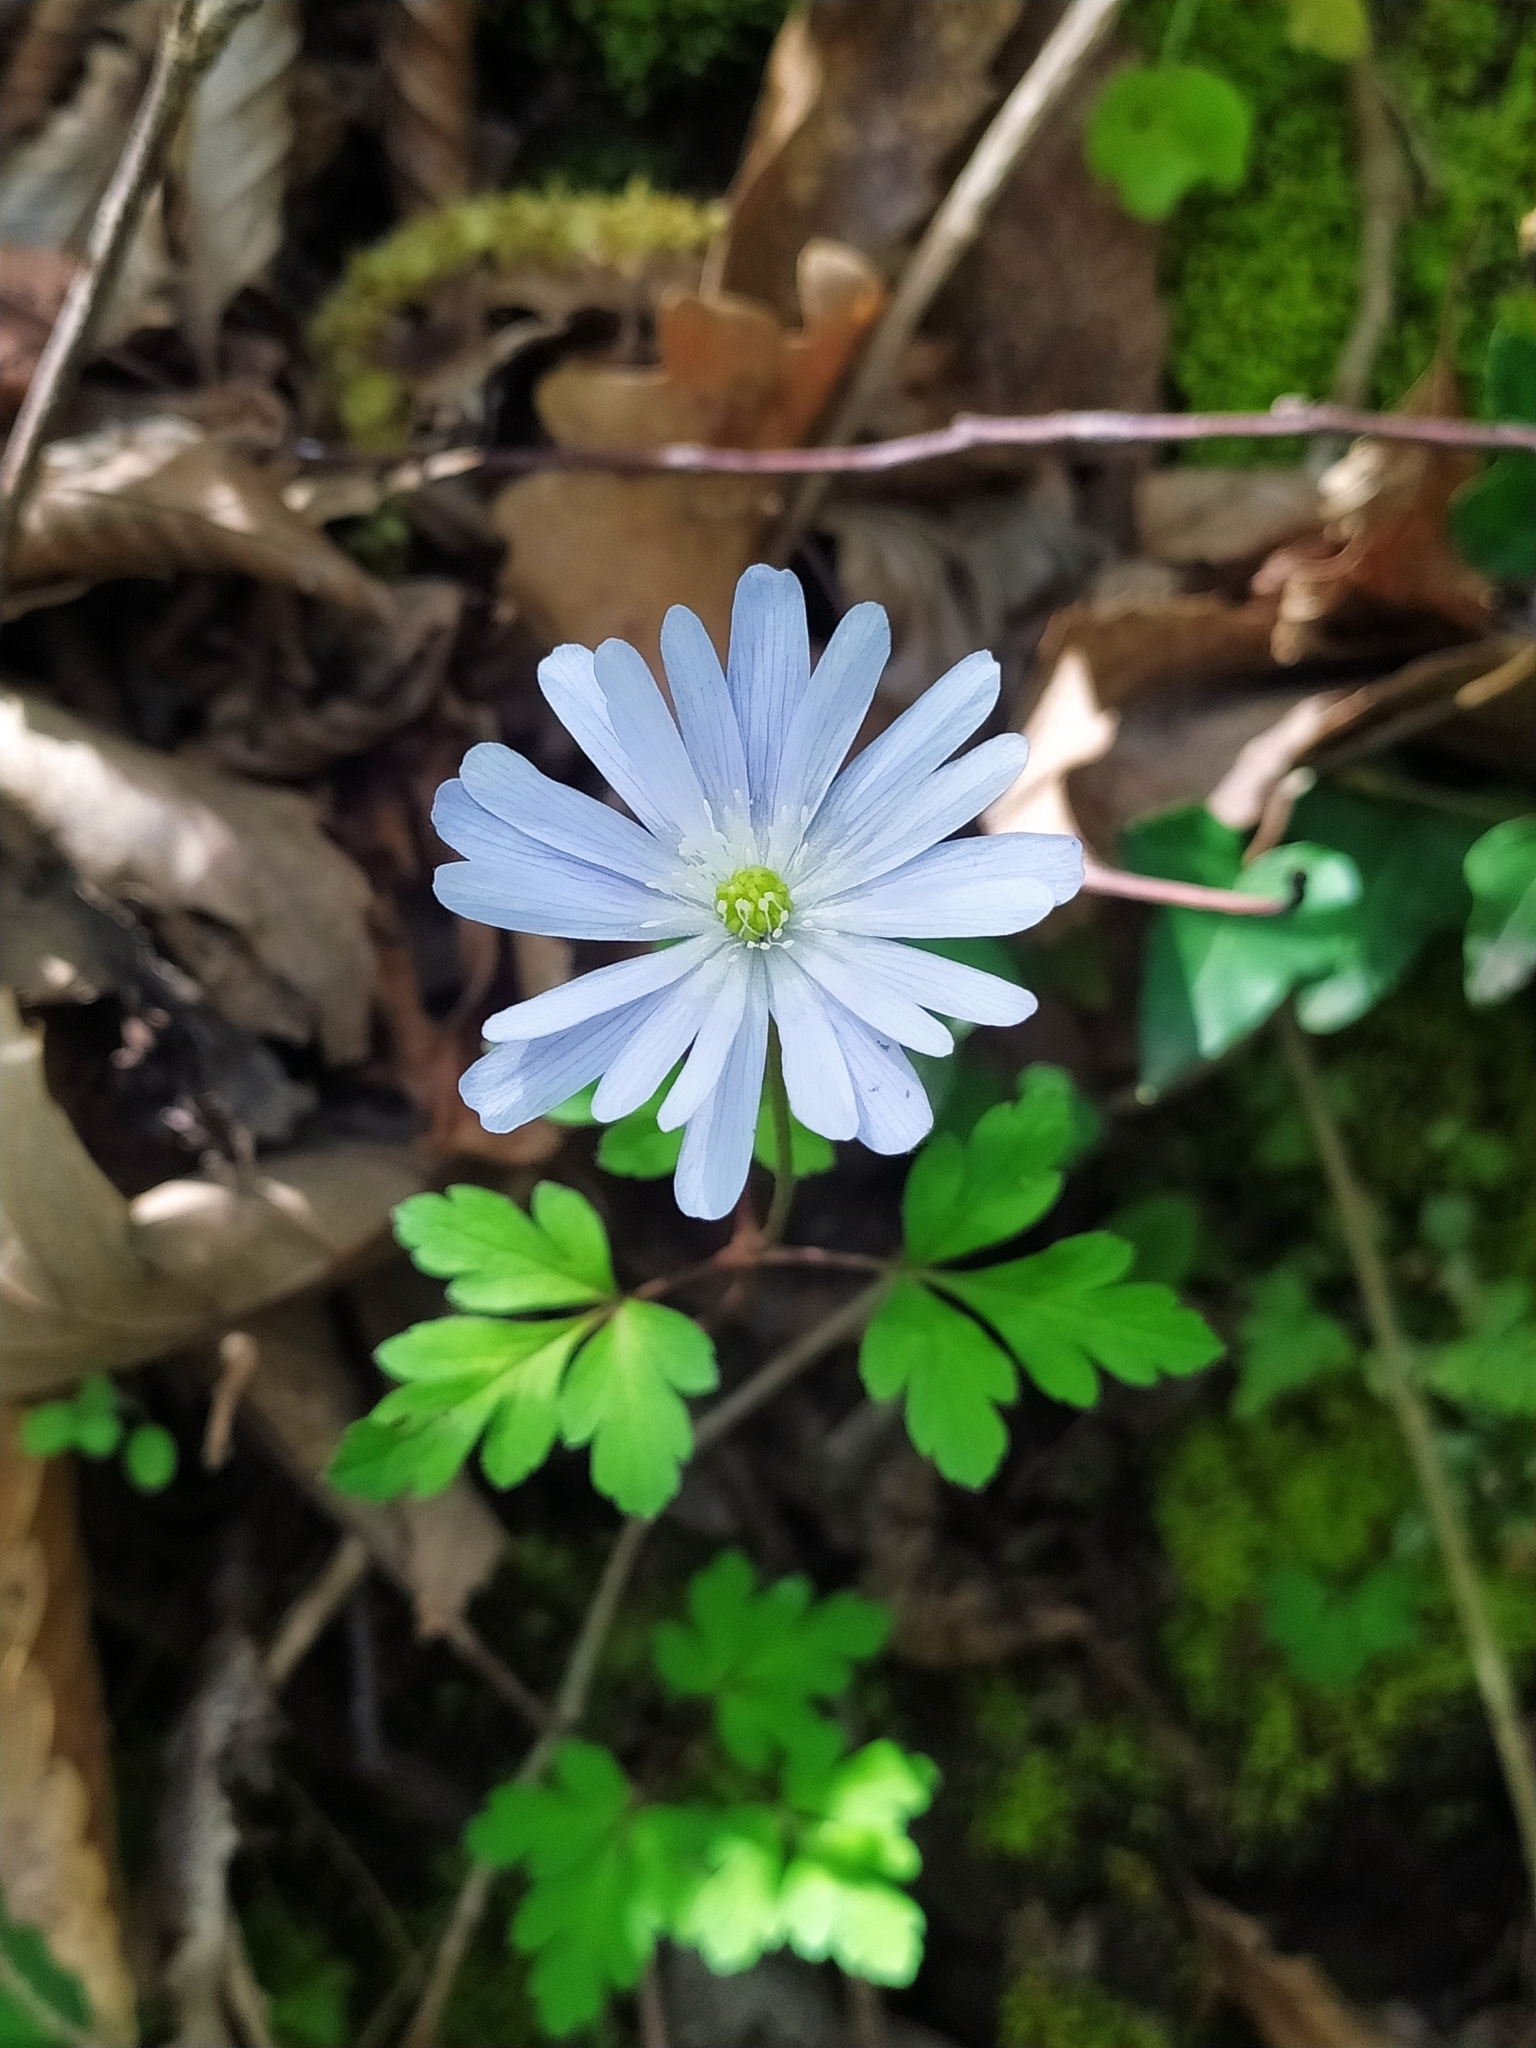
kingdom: Plantae
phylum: Tracheophyta
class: Magnoliopsida
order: Ranunculales
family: Ranunculaceae
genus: Anemone
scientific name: Anemone apennina
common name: Blue anemone
